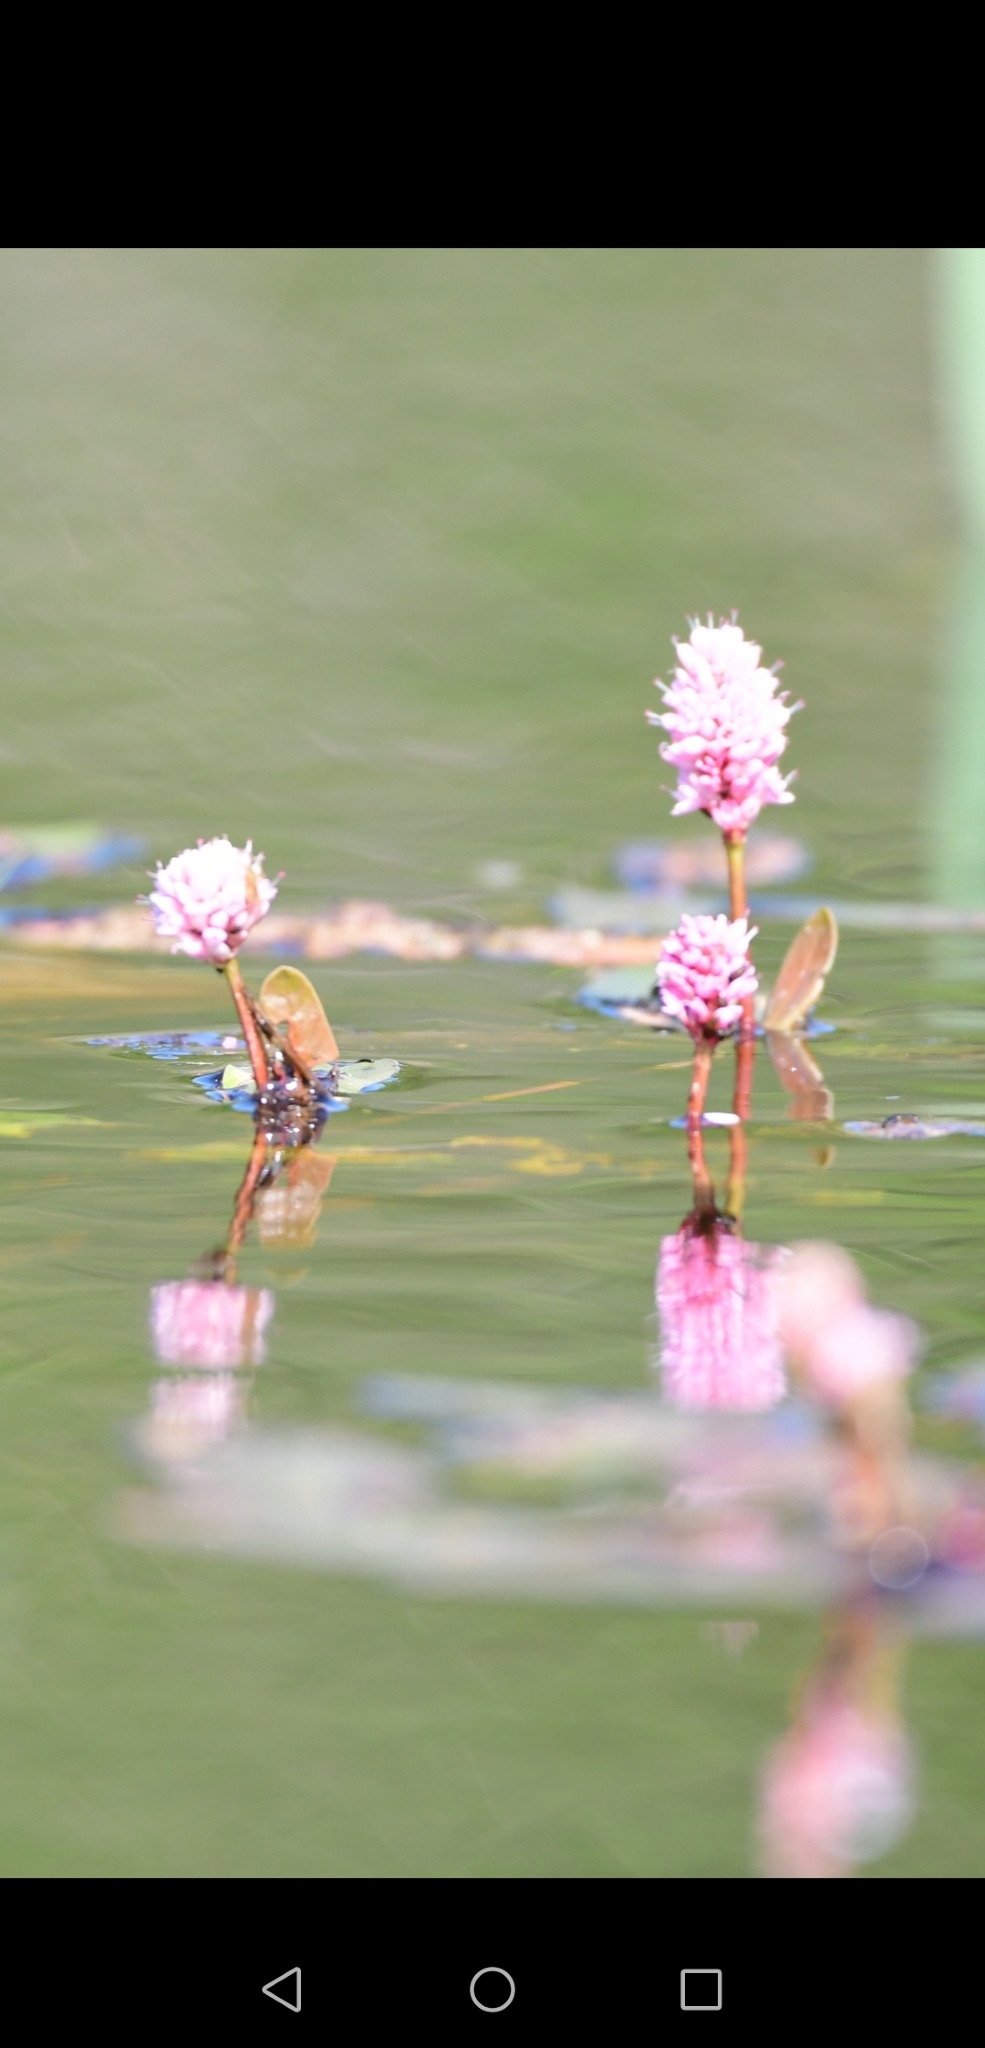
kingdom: Plantae
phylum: Tracheophyta
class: Magnoliopsida
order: Caryophyllales
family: Polygonaceae
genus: Persicaria
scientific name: Persicaria amphibia
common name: Amphibious bistort
